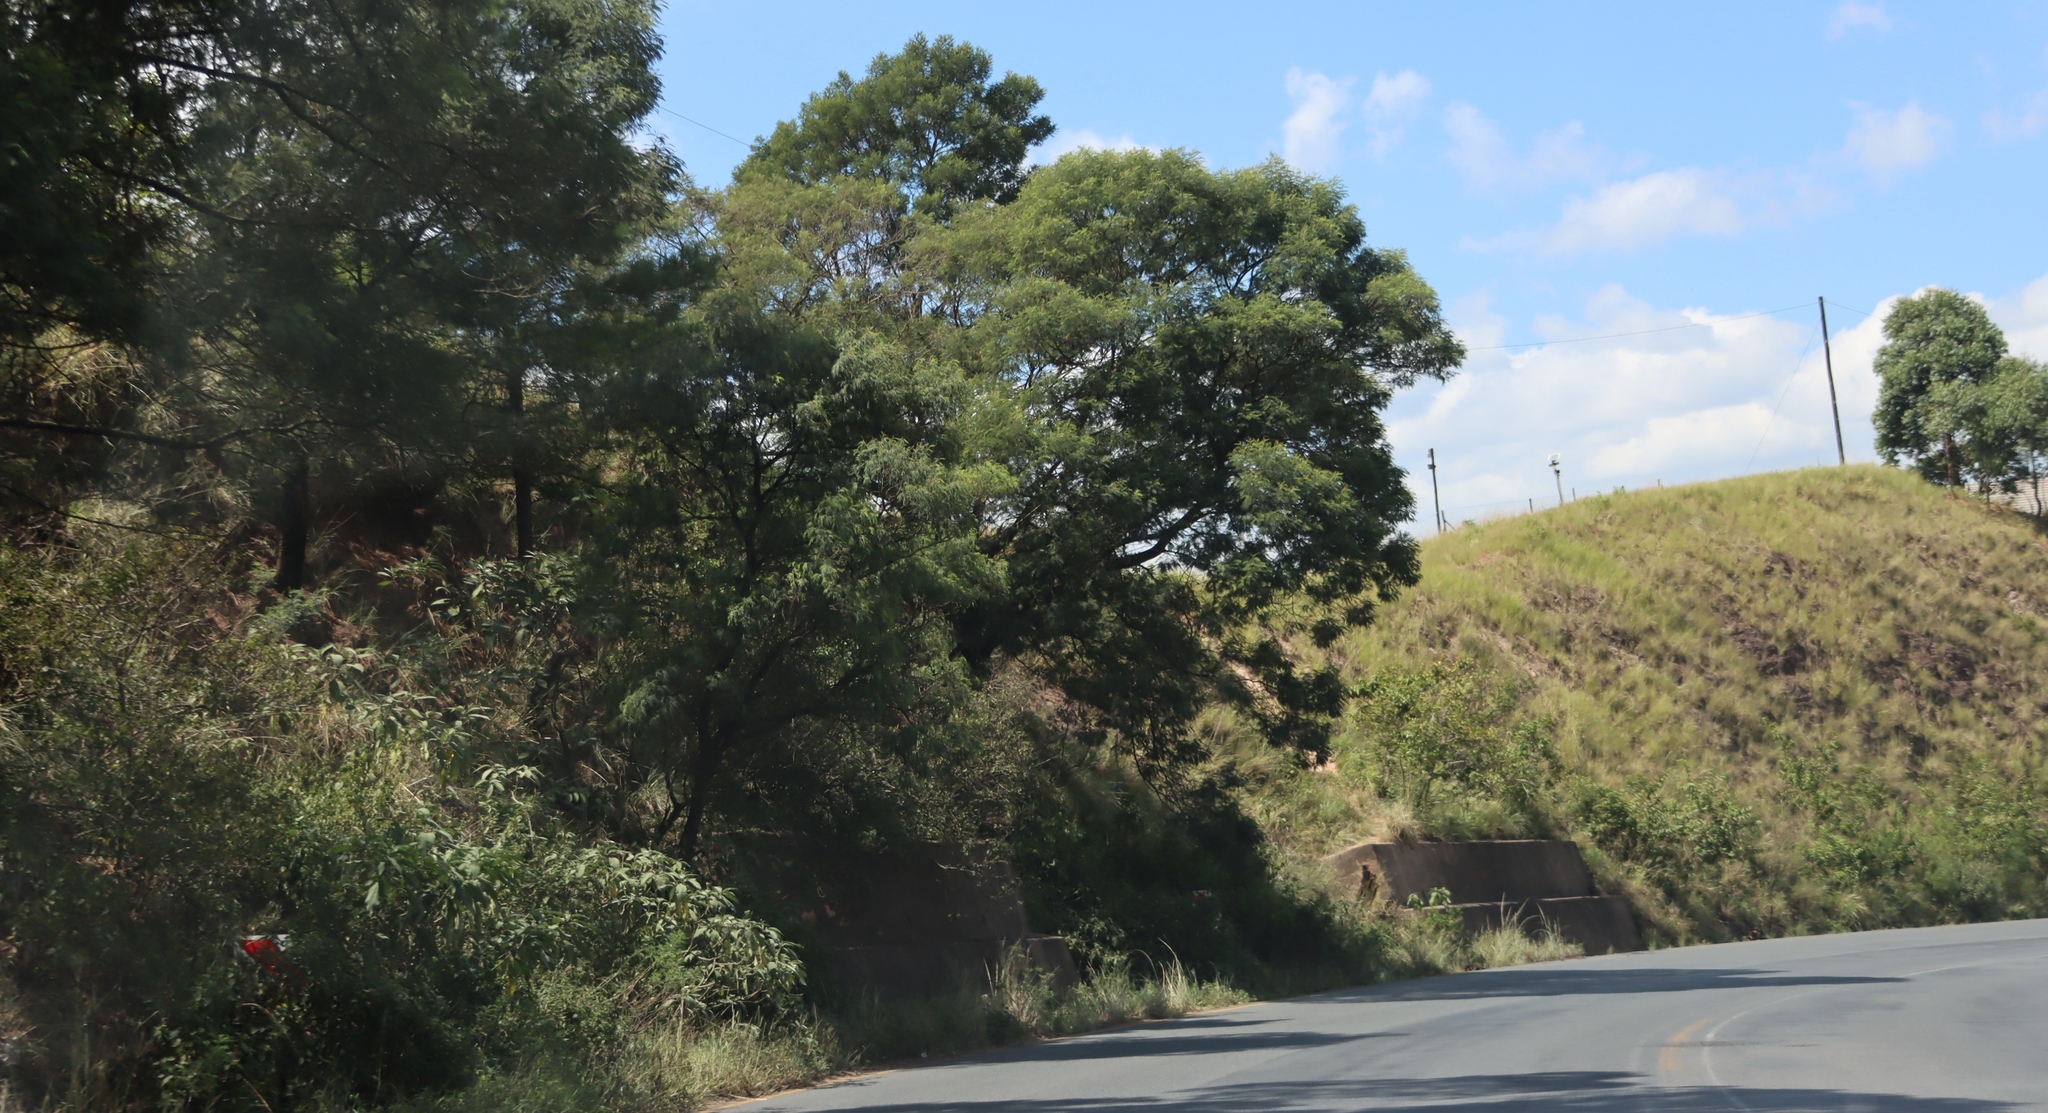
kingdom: Plantae
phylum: Tracheophyta
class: Magnoliopsida
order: Fabales
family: Fabaceae
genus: Acacia
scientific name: Acacia mearnsii
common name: Black wattle
